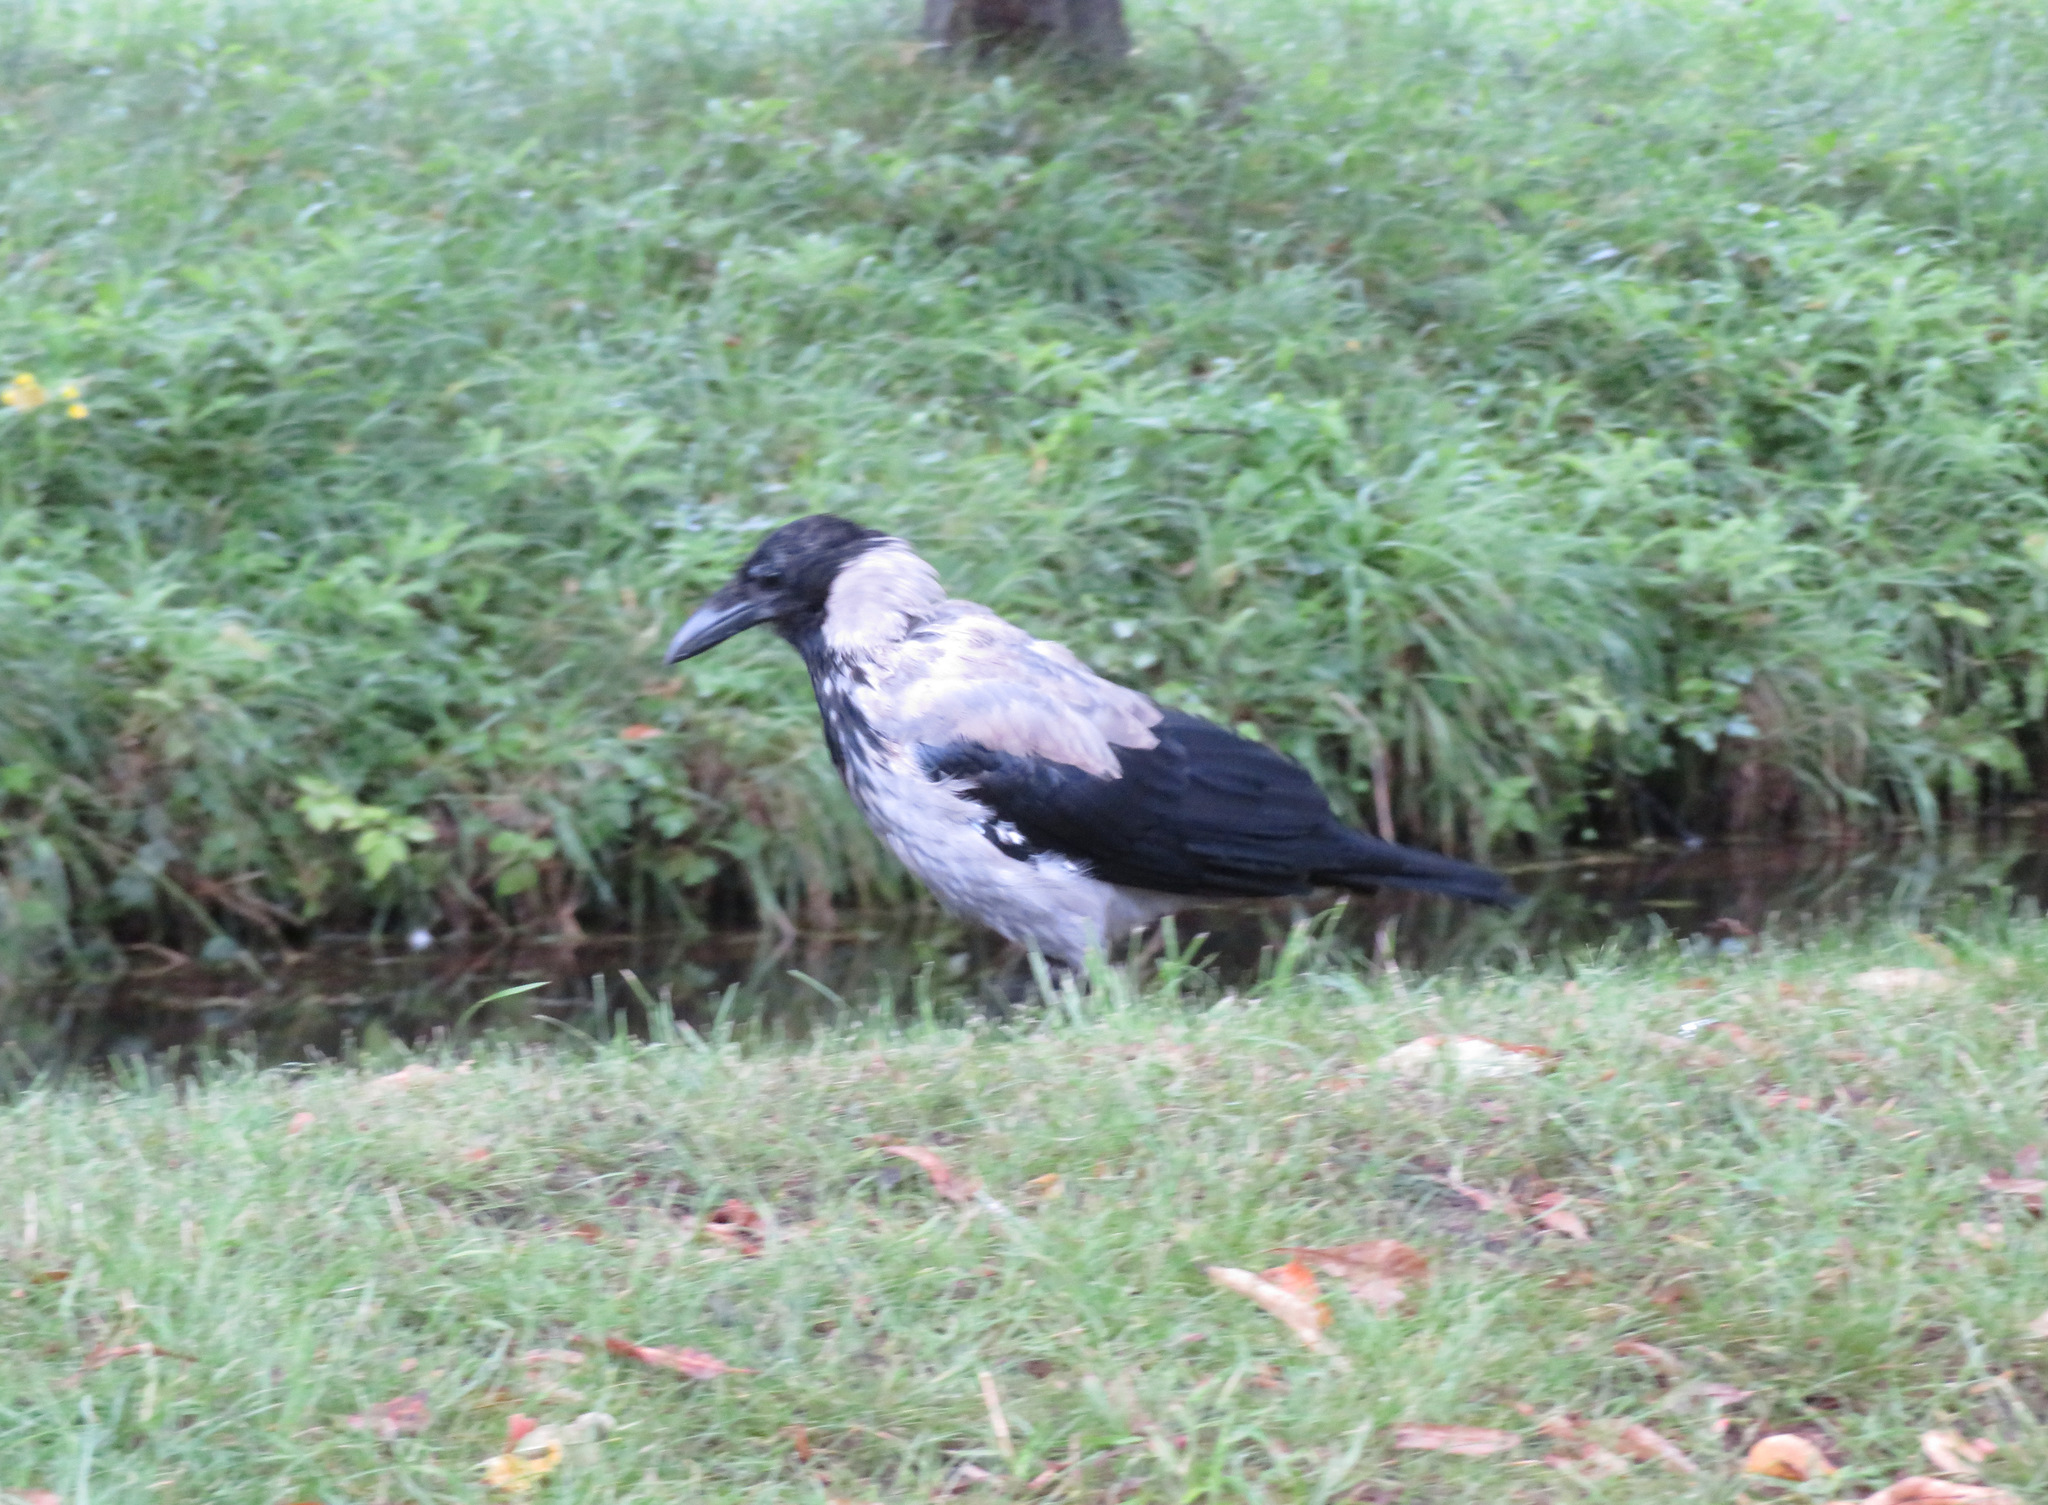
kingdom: Animalia
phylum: Chordata
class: Aves
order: Passeriformes
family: Corvidae
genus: Corvus
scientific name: Corvus cornix
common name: Hooded crow
